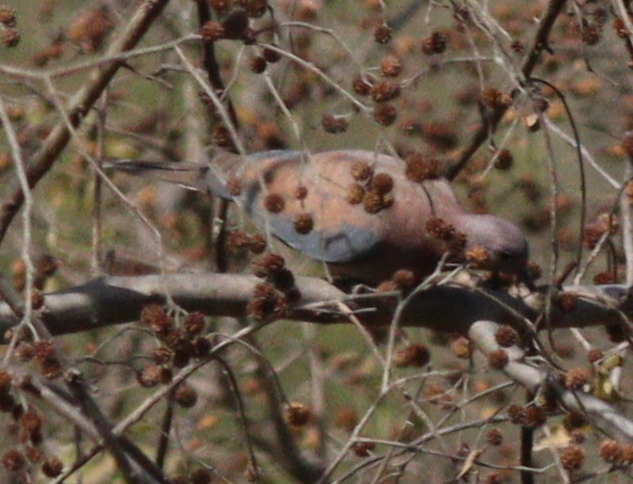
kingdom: Animalia
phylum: Chordata
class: Aves
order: Columbiformes
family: Columbidae
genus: Spilopelia
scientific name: Spilopelia senegalensis
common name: Laughing dove
